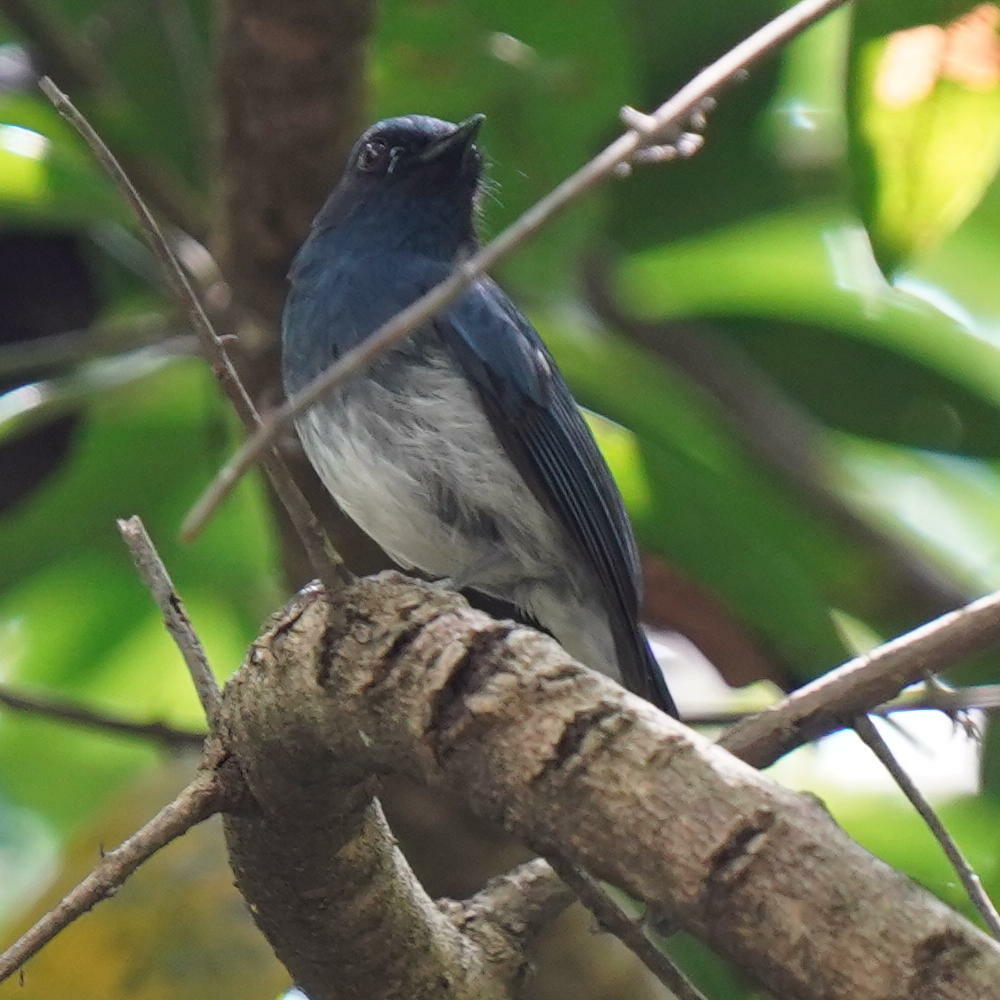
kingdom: Animalia
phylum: Chordata
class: Aves
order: Passeriformes
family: Muscicapidae
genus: Cyornis
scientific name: Cyornis pallidipes
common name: White-bellied blue flycatcher
